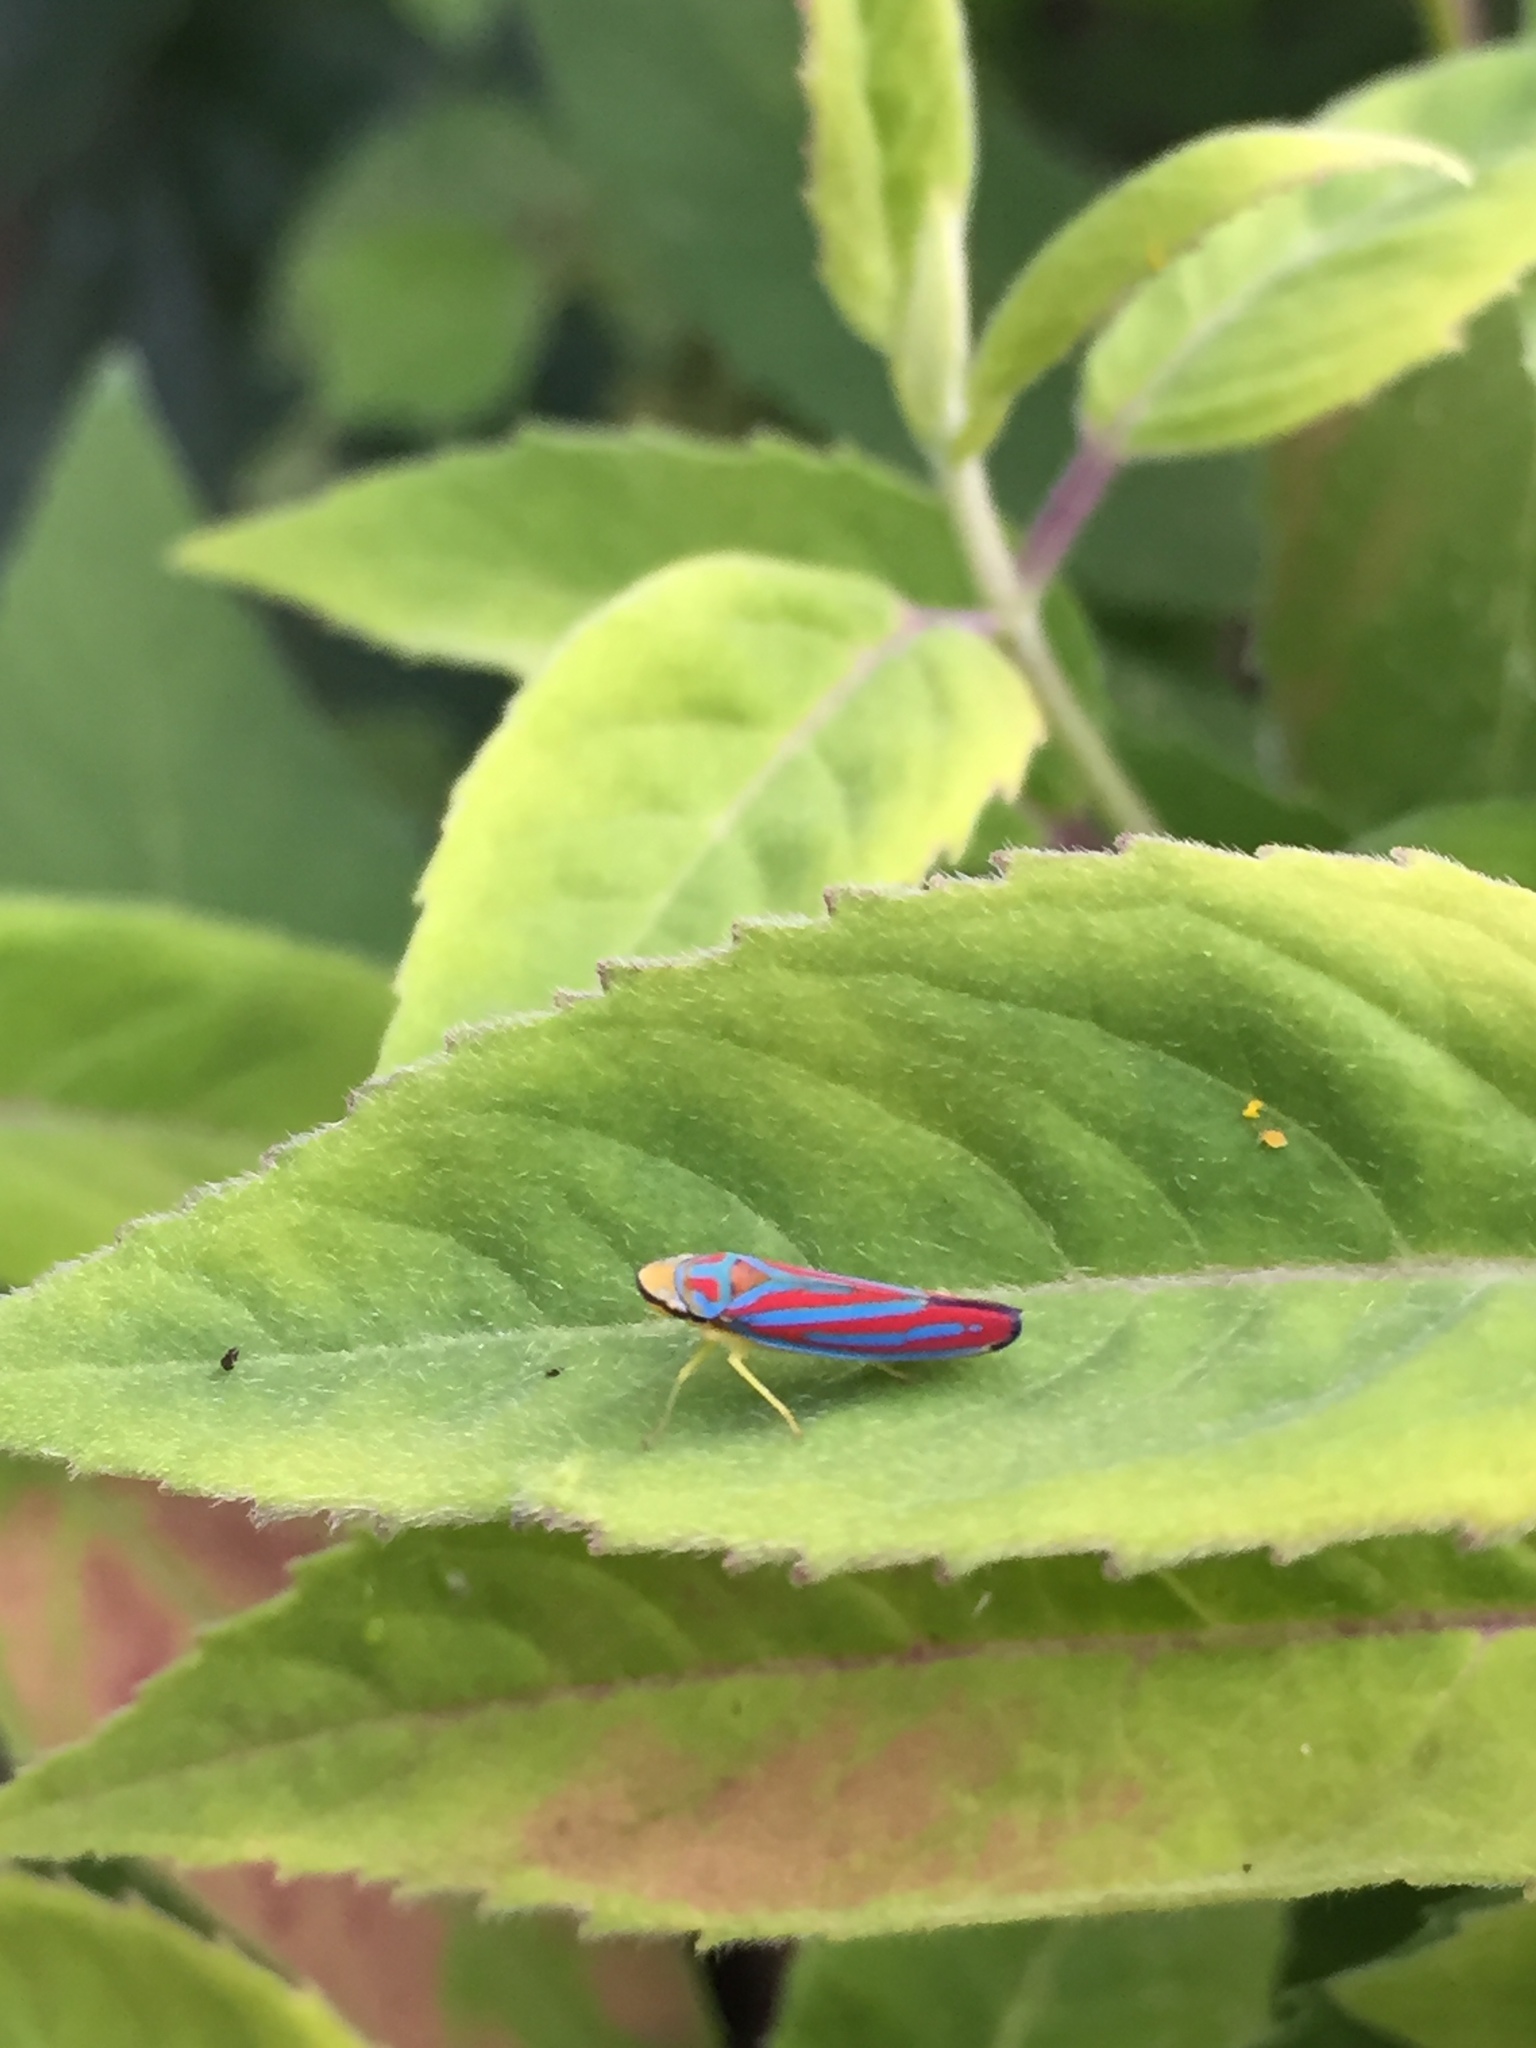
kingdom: Animalia
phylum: Arthropoda
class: Insecta
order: Hemiptera
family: Cicadellidae
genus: Graphocephala
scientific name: Graphocephala coccinea
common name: Candy-striped leafhopper
